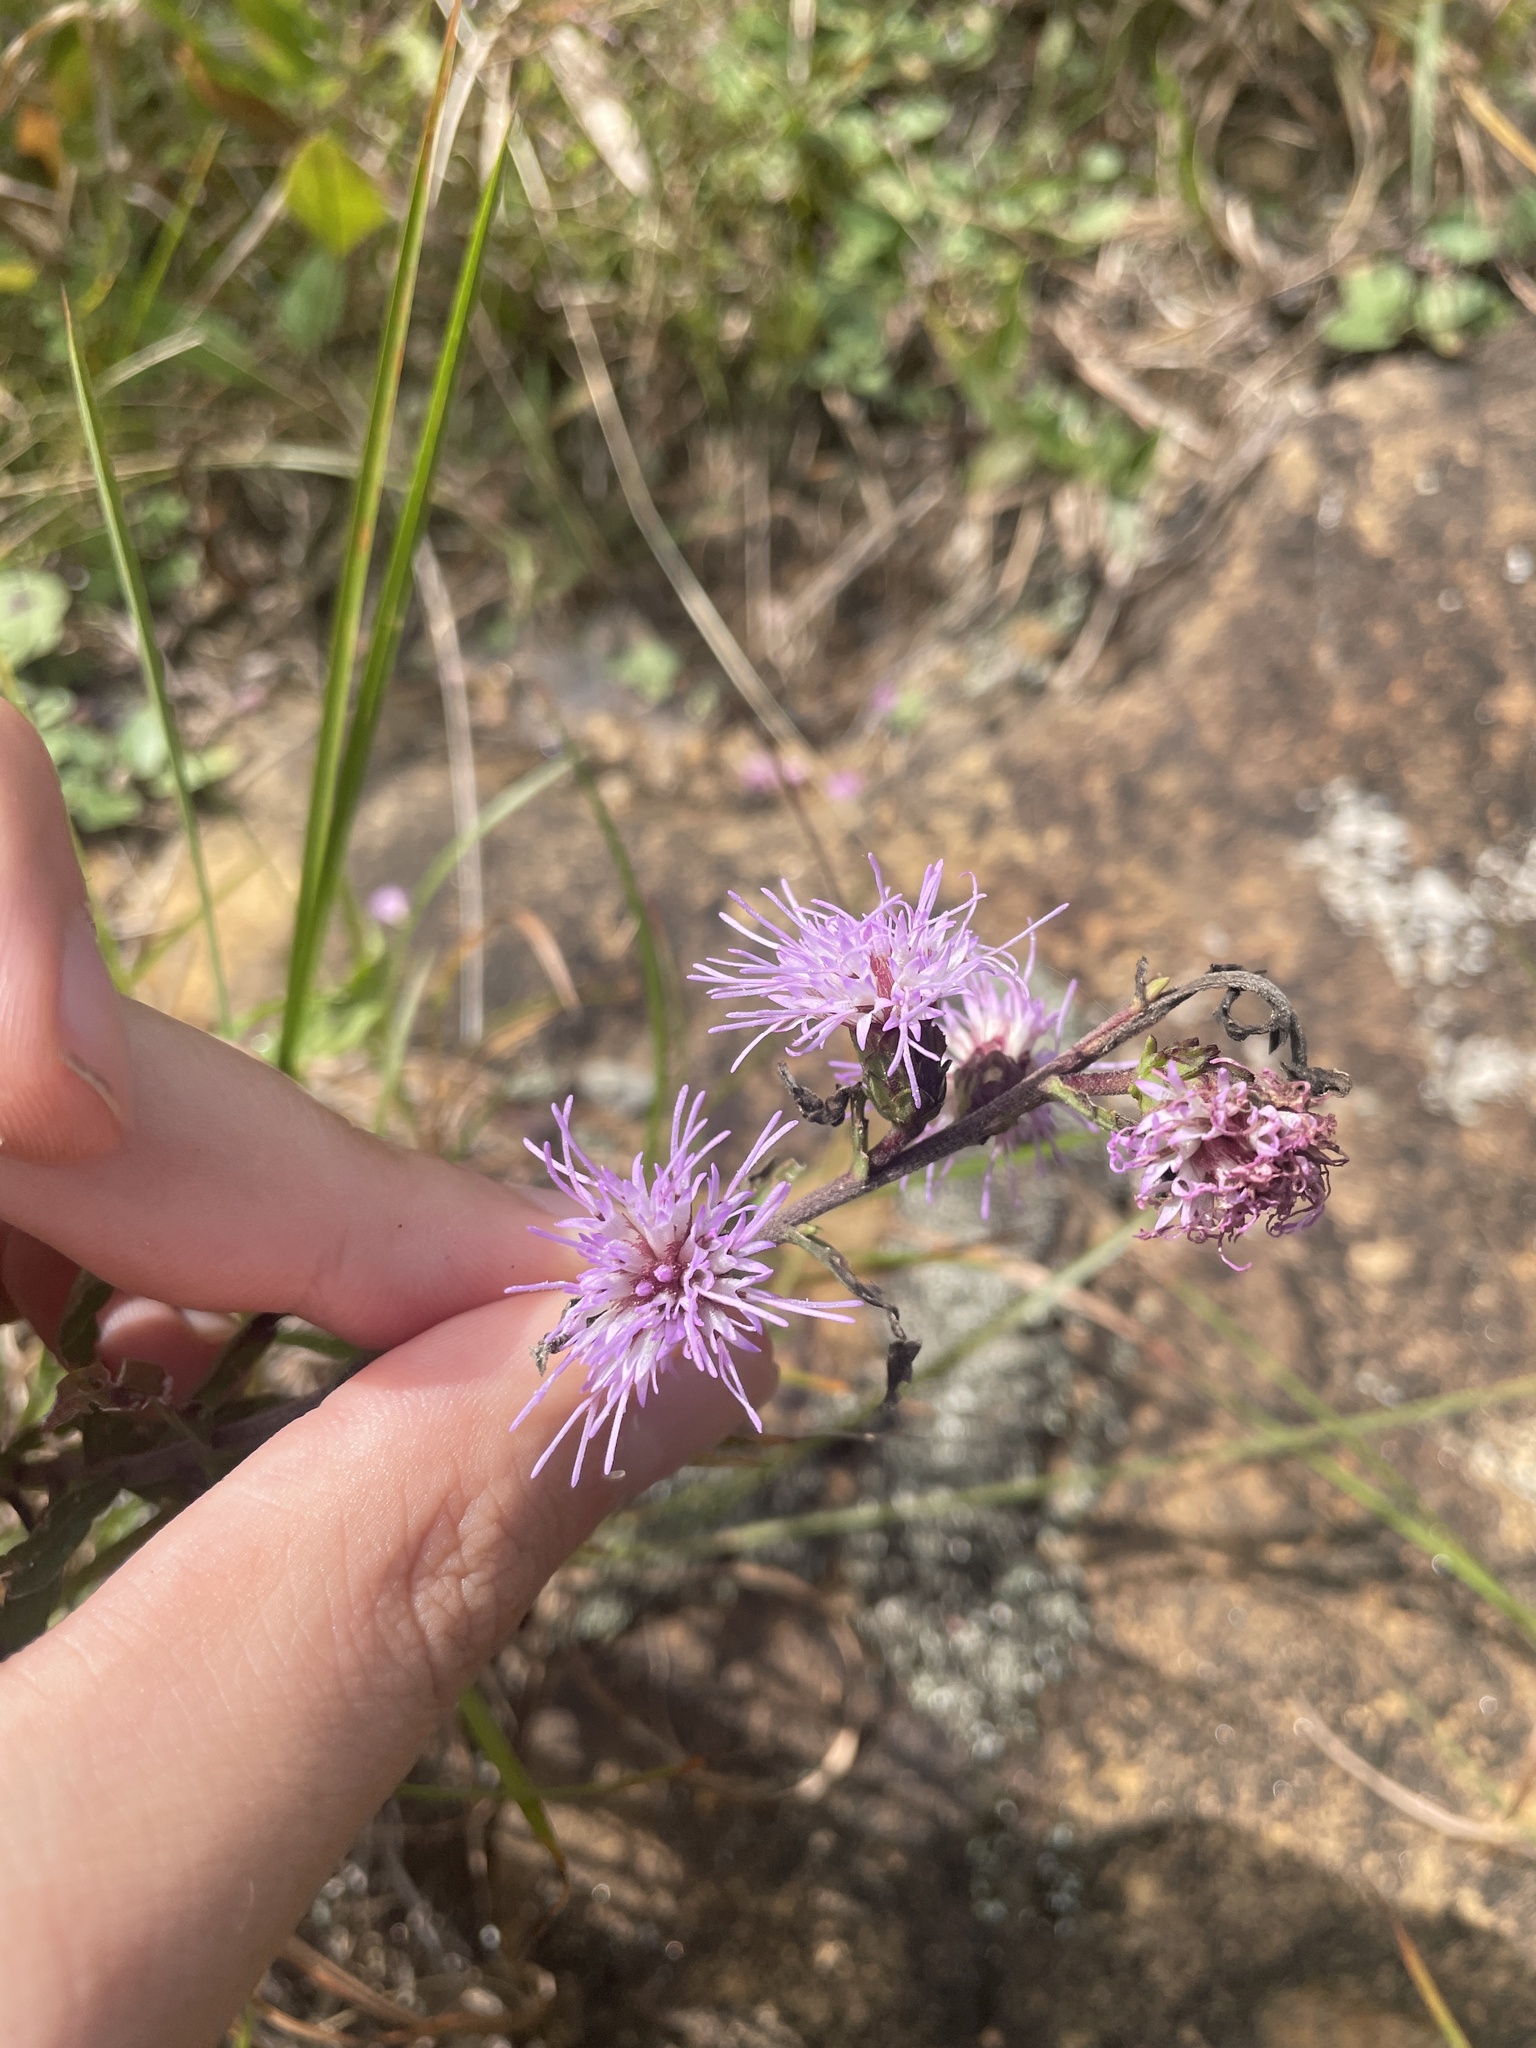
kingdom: Plantae
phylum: Tracheophyta
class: Magnoliopsida
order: Asterales
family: Asteraceae
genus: Liatris
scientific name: Liatris scariosa
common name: Northern gayfeather
